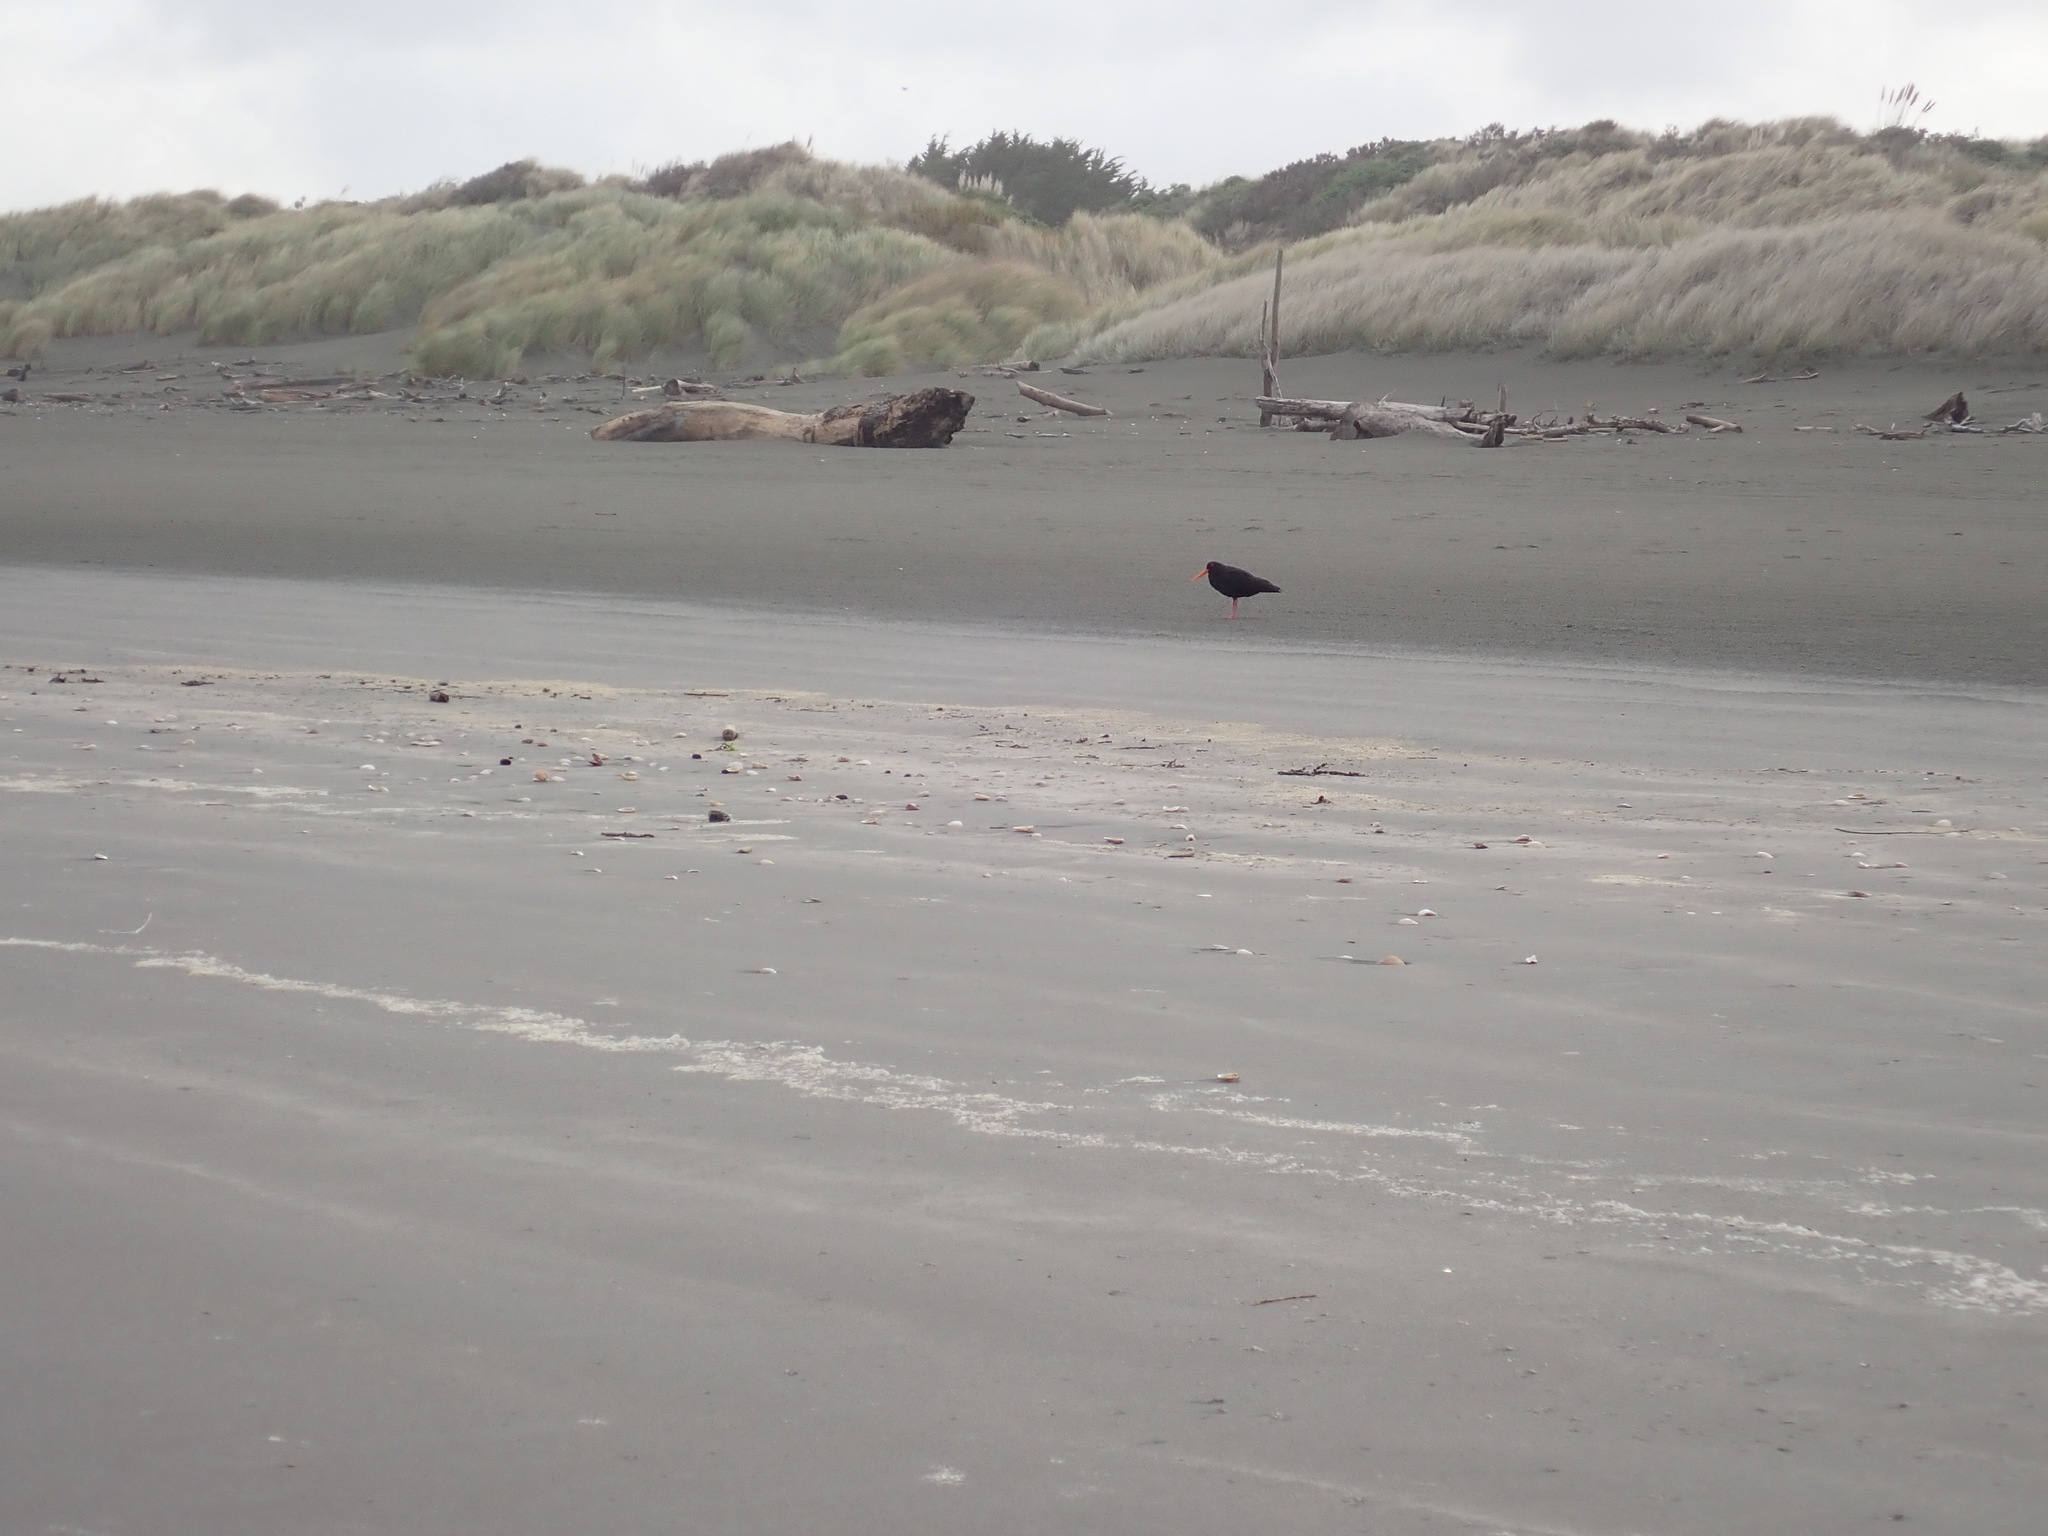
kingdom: Animalia
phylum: Chordata
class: Aves
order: Charadriiformes
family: Haematopodidae
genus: Haematopus
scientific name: Haematopus unicolor
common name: Variable oystercatcher
